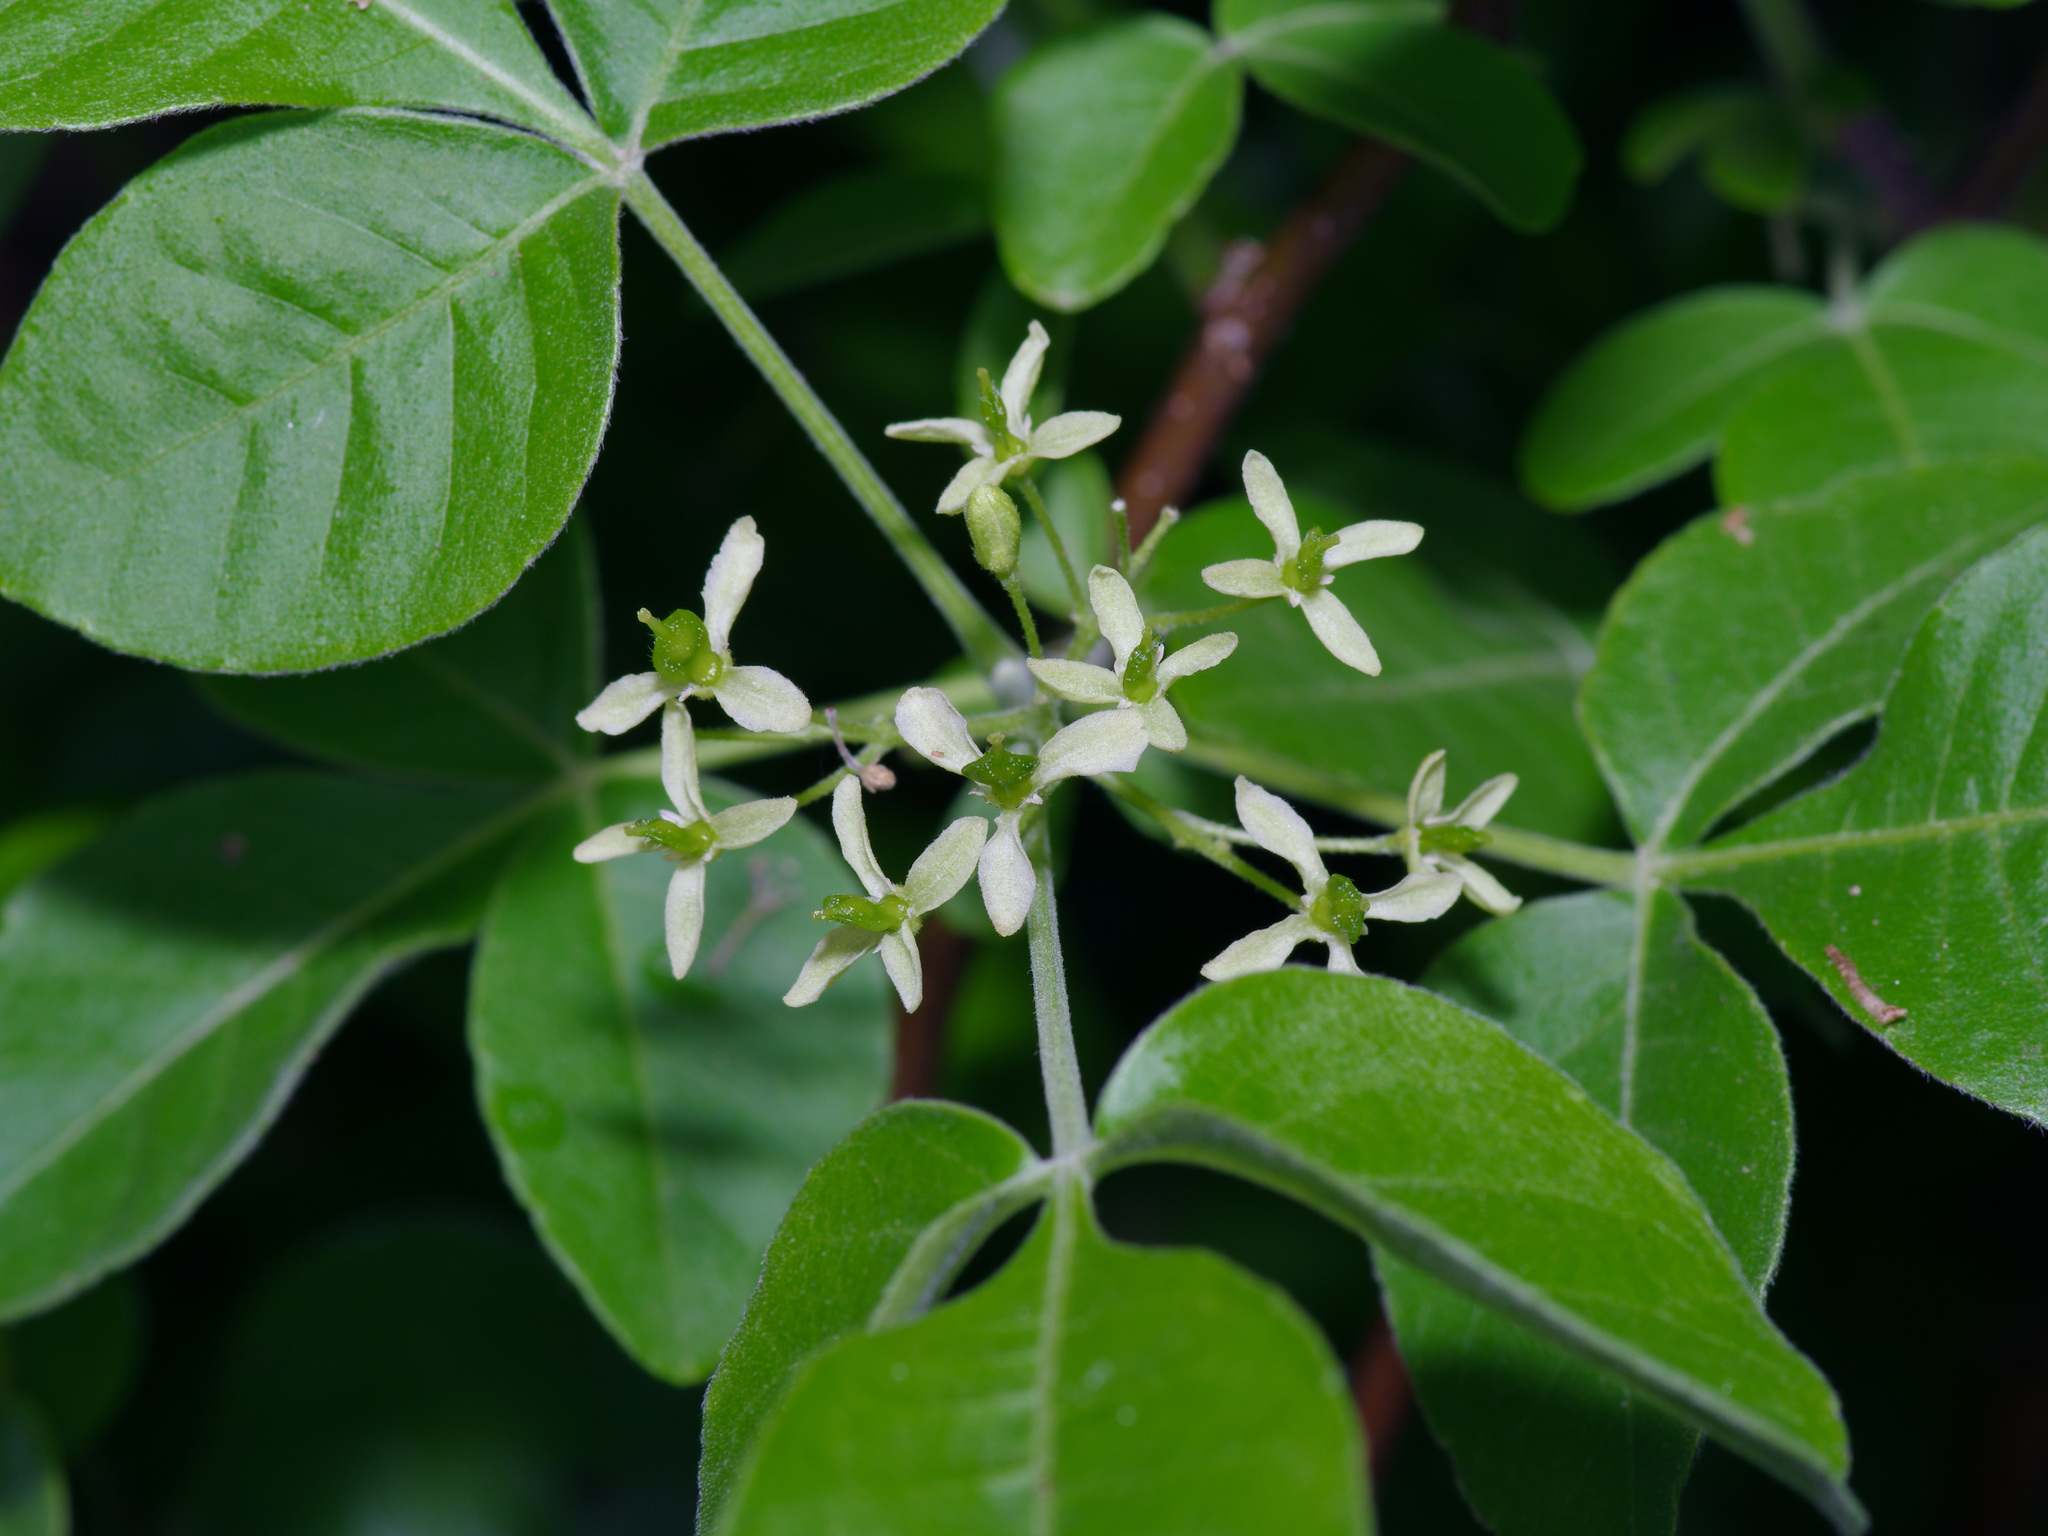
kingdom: Plantae
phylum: Tracheophyta
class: Magnoliopsida
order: Sapindales
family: Rutaceae
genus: Ptelea
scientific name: Ptelea trifoliata
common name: Common hop-tree
